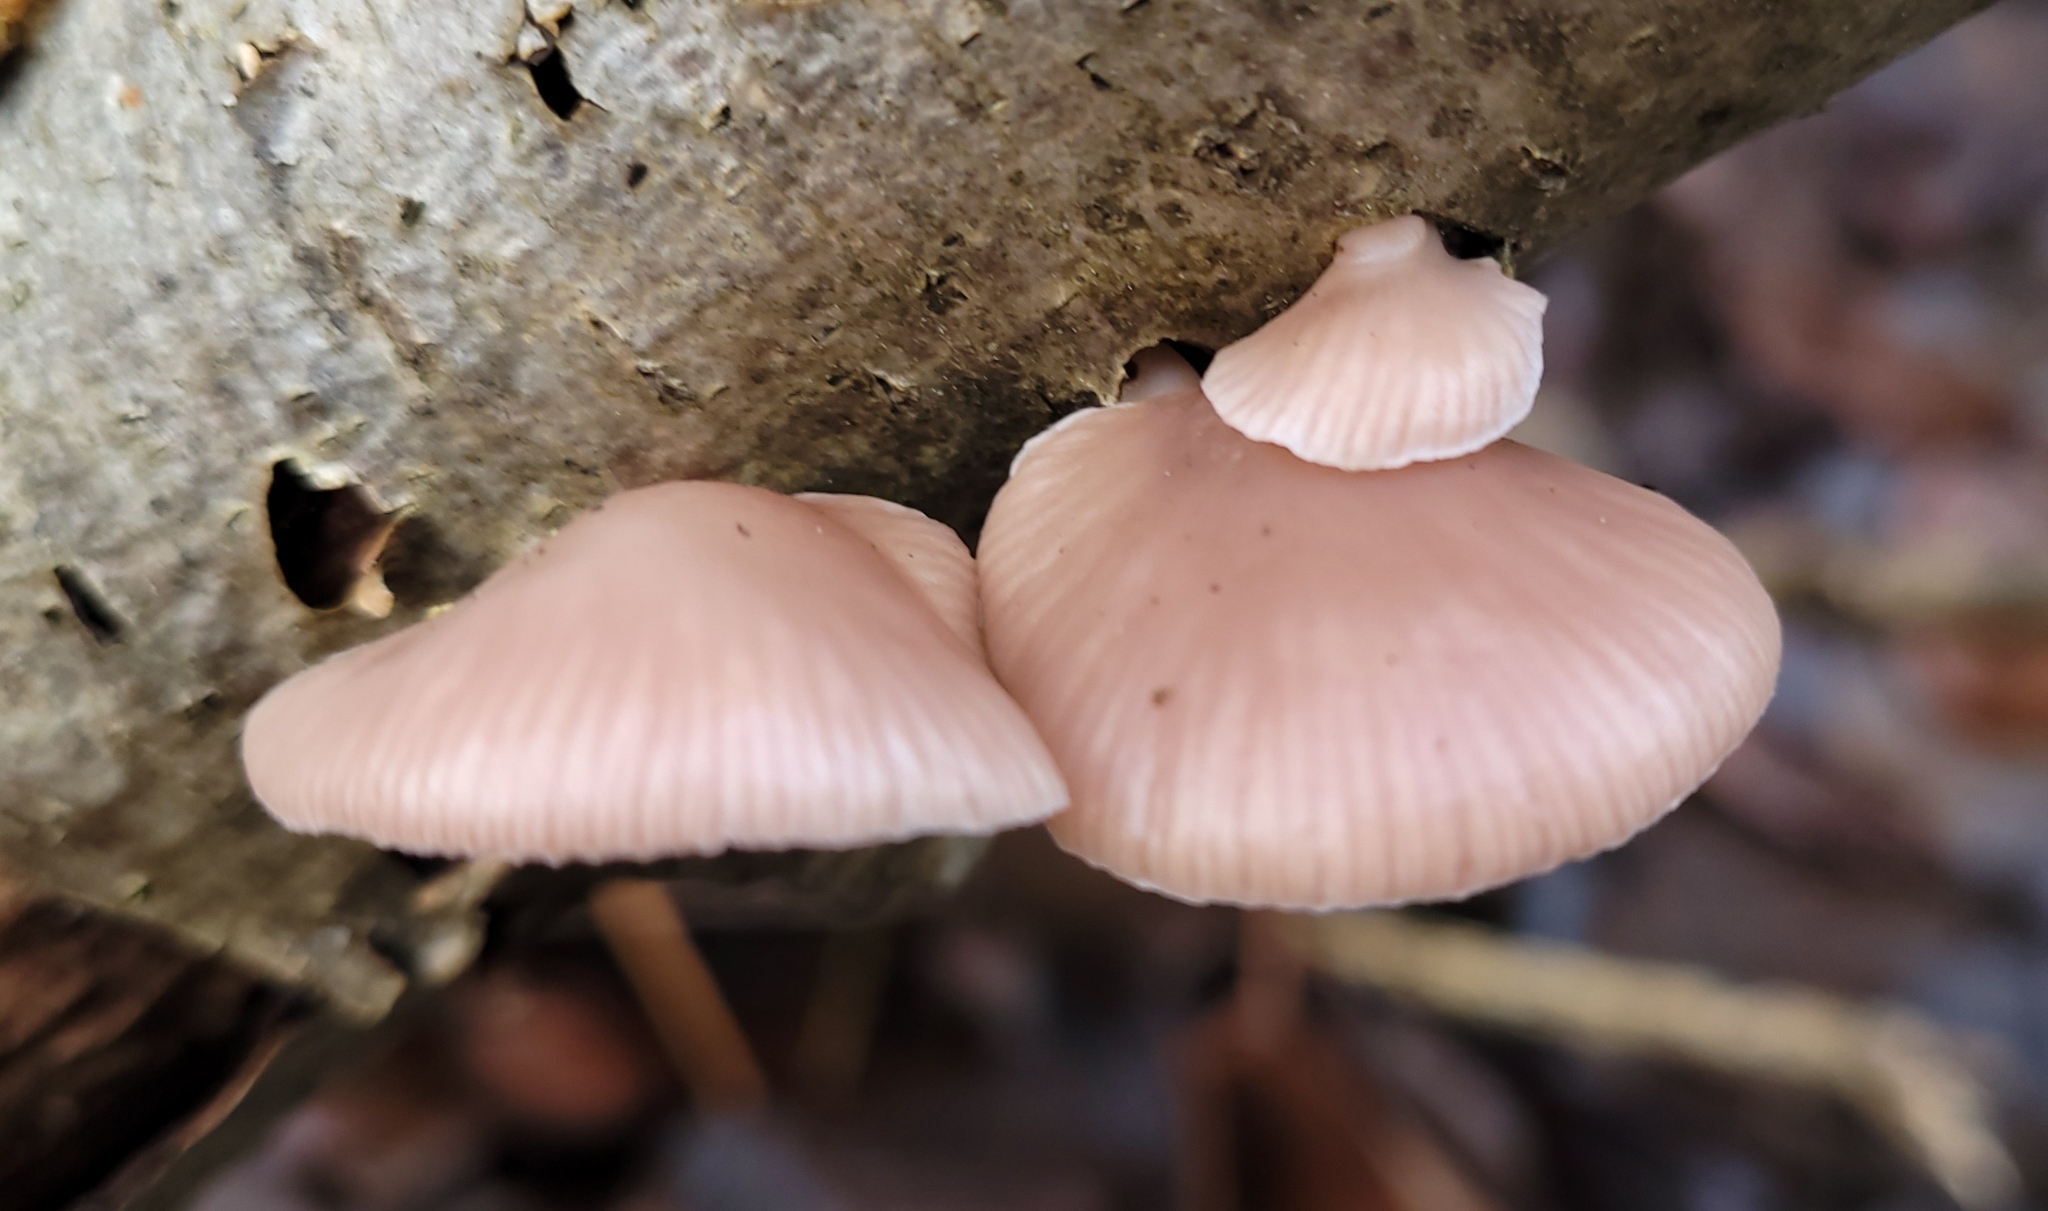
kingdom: Fungi
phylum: Basidiomycota
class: Agaricomycetes
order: Agaricales
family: Mycenaceae
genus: Panellus
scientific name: Panellus longinquus
